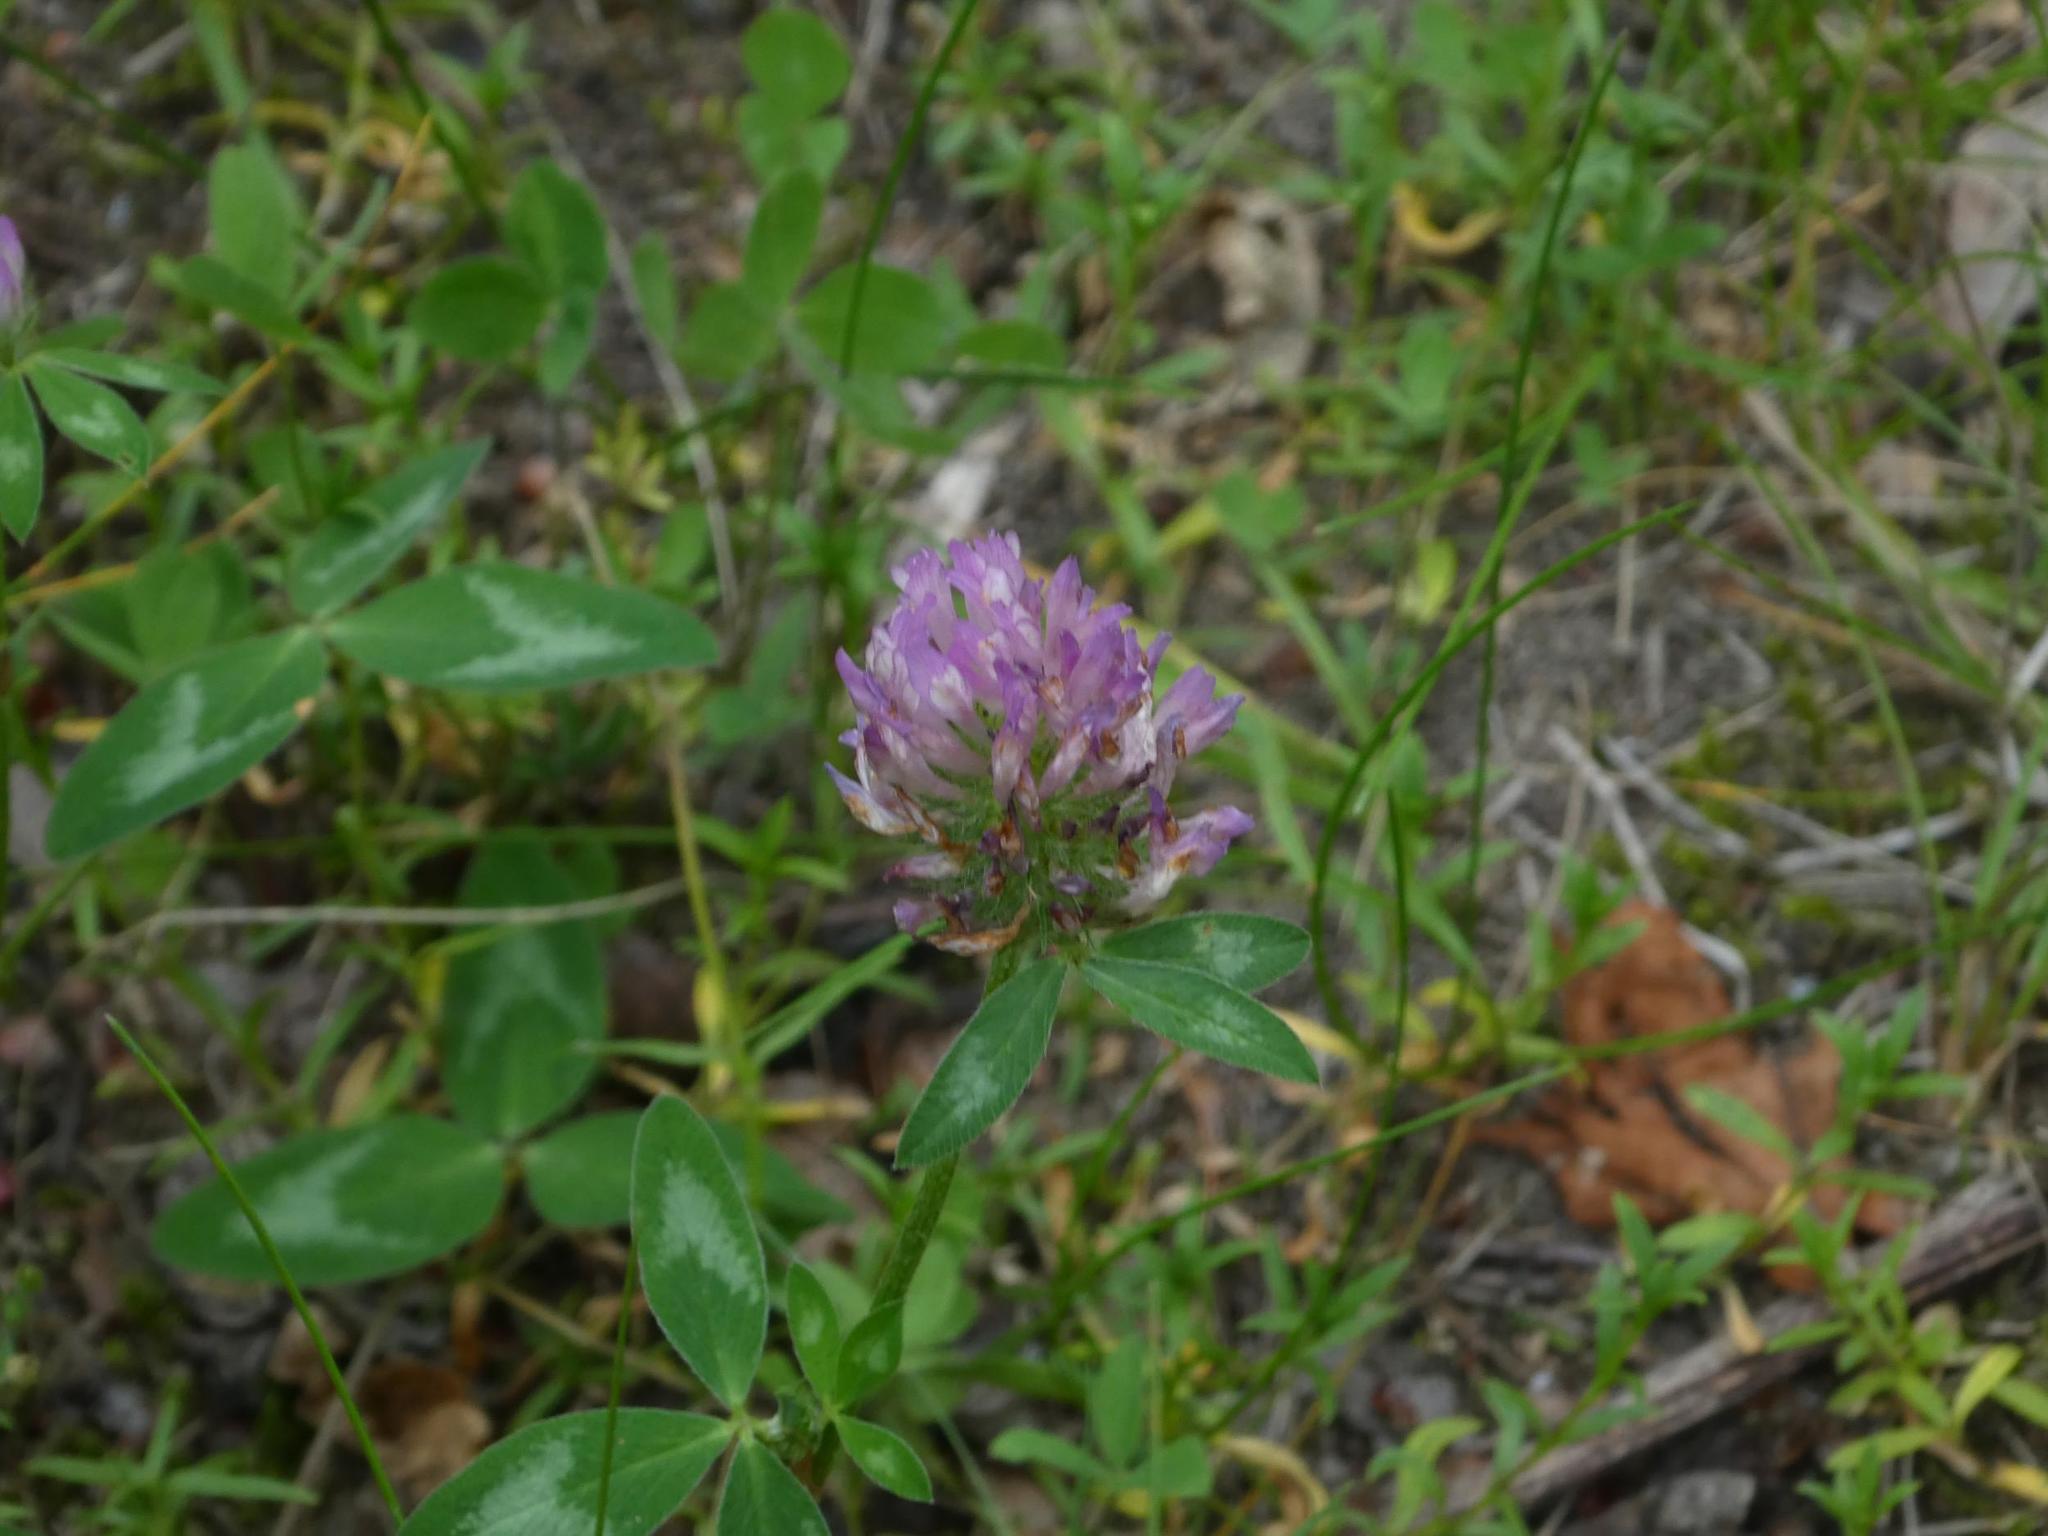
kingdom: Plantae
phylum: Tracheophyta
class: Magnoliopsida
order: Fabales
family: Fabaceae
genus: Trifolium
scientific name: Trifolium pratense
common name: Red clover
